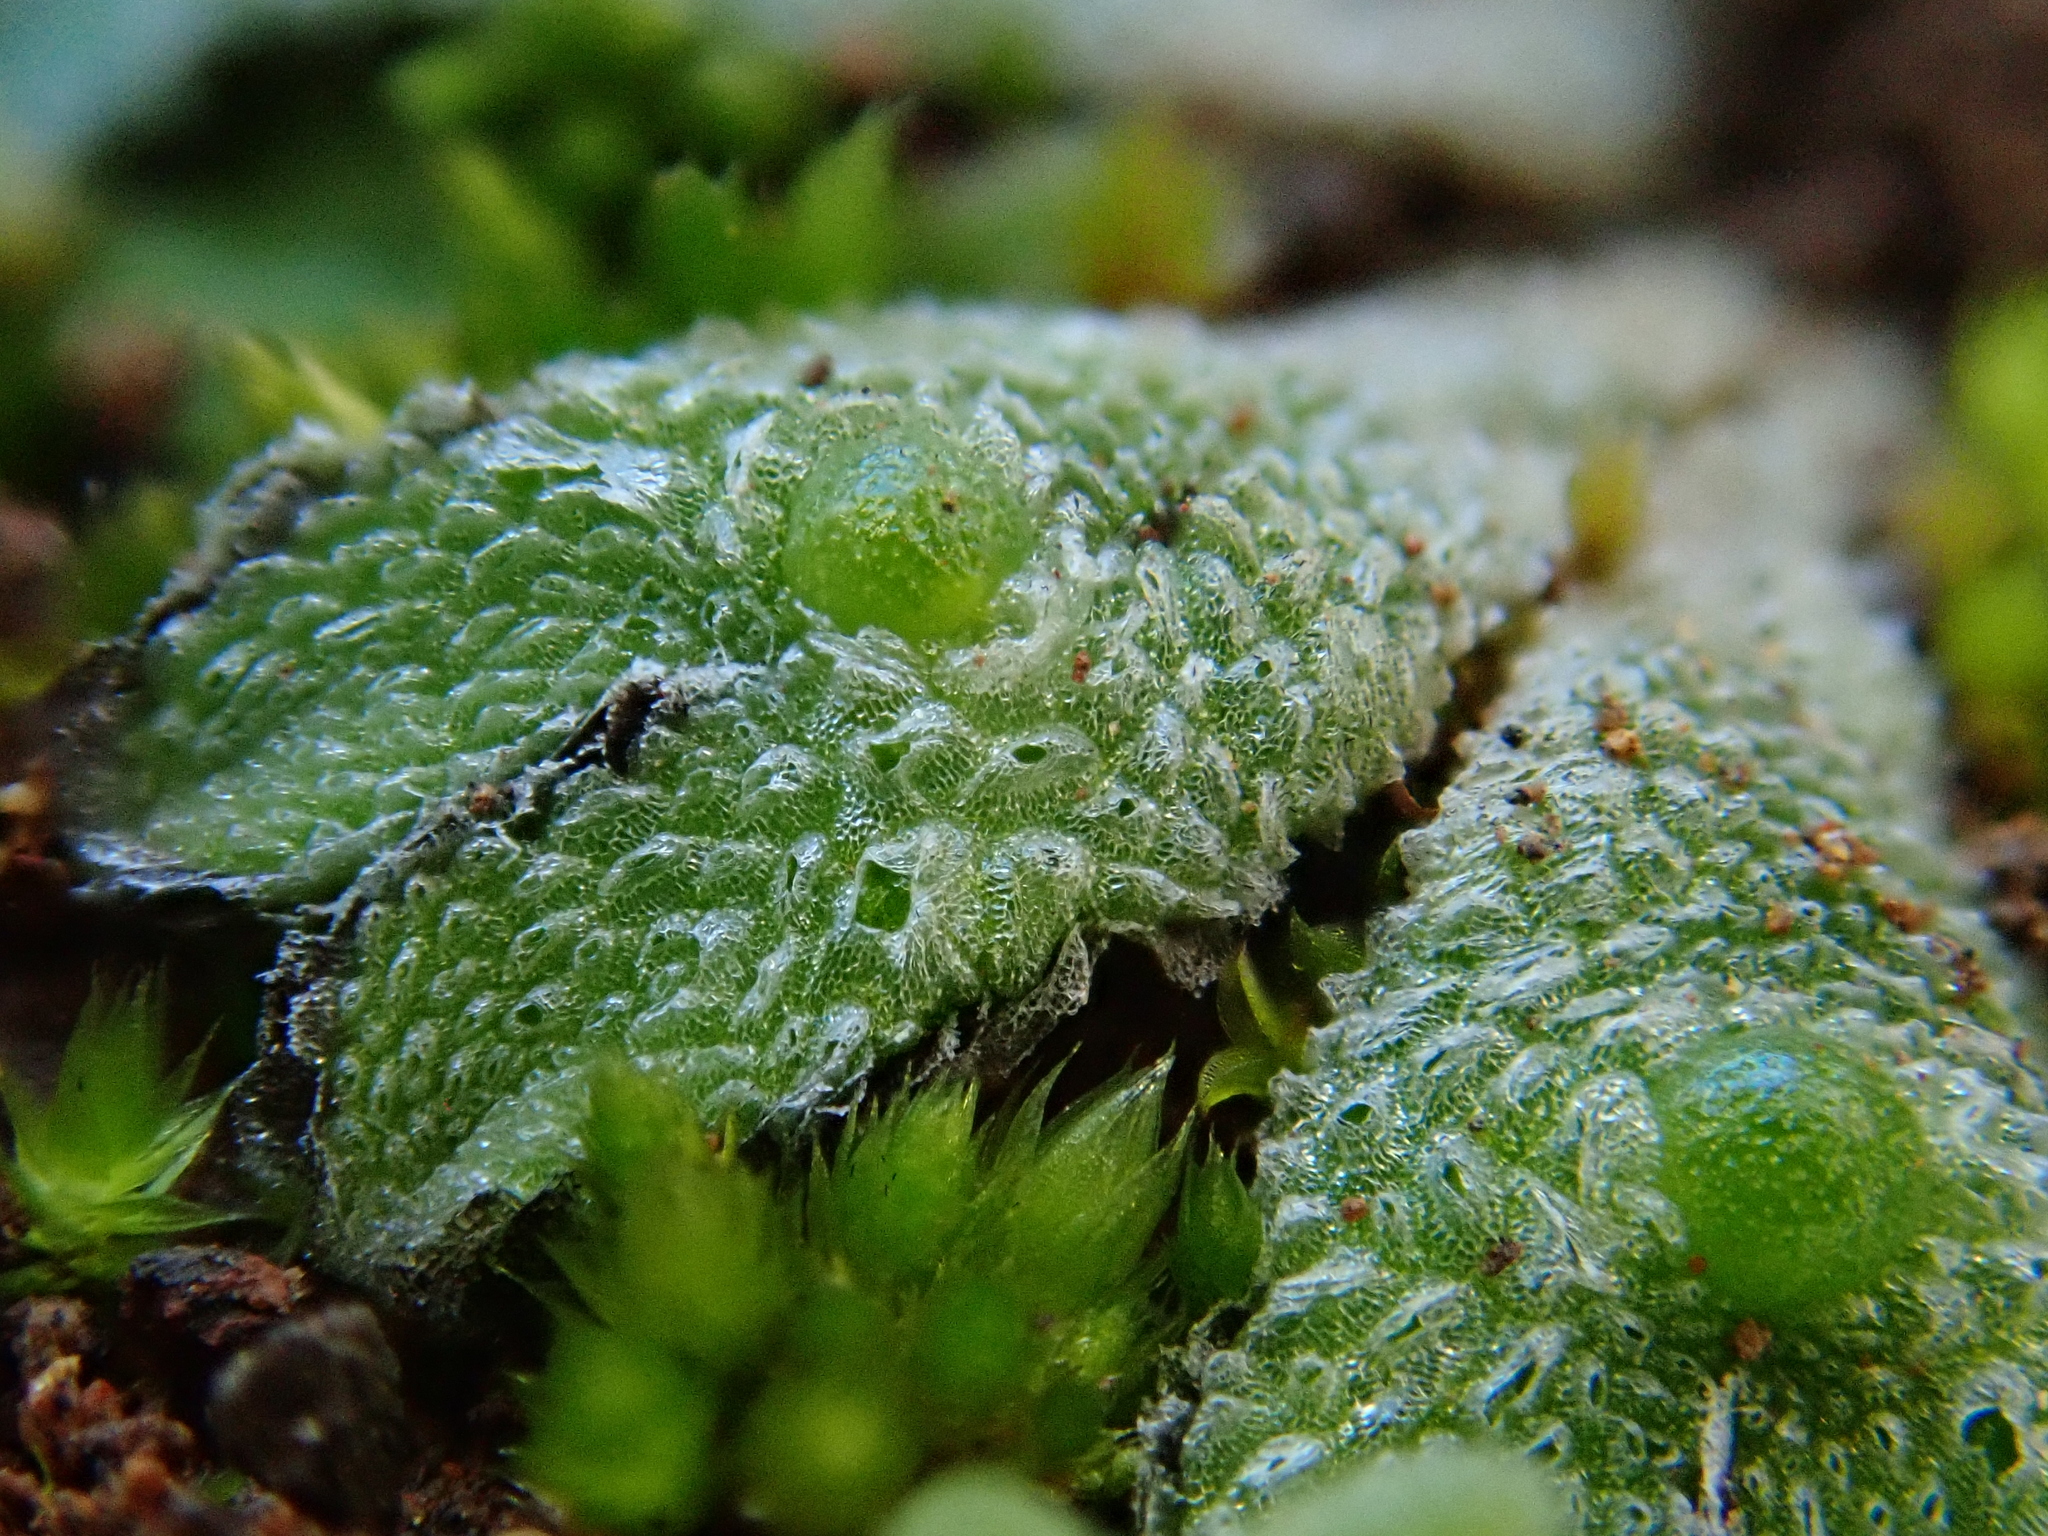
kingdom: Plantae
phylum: Marchantiophyta
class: Marchantiopsida
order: Marchantiales
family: Corsiniaceae
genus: Exormotheca
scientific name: Exormotheca pustulosa
